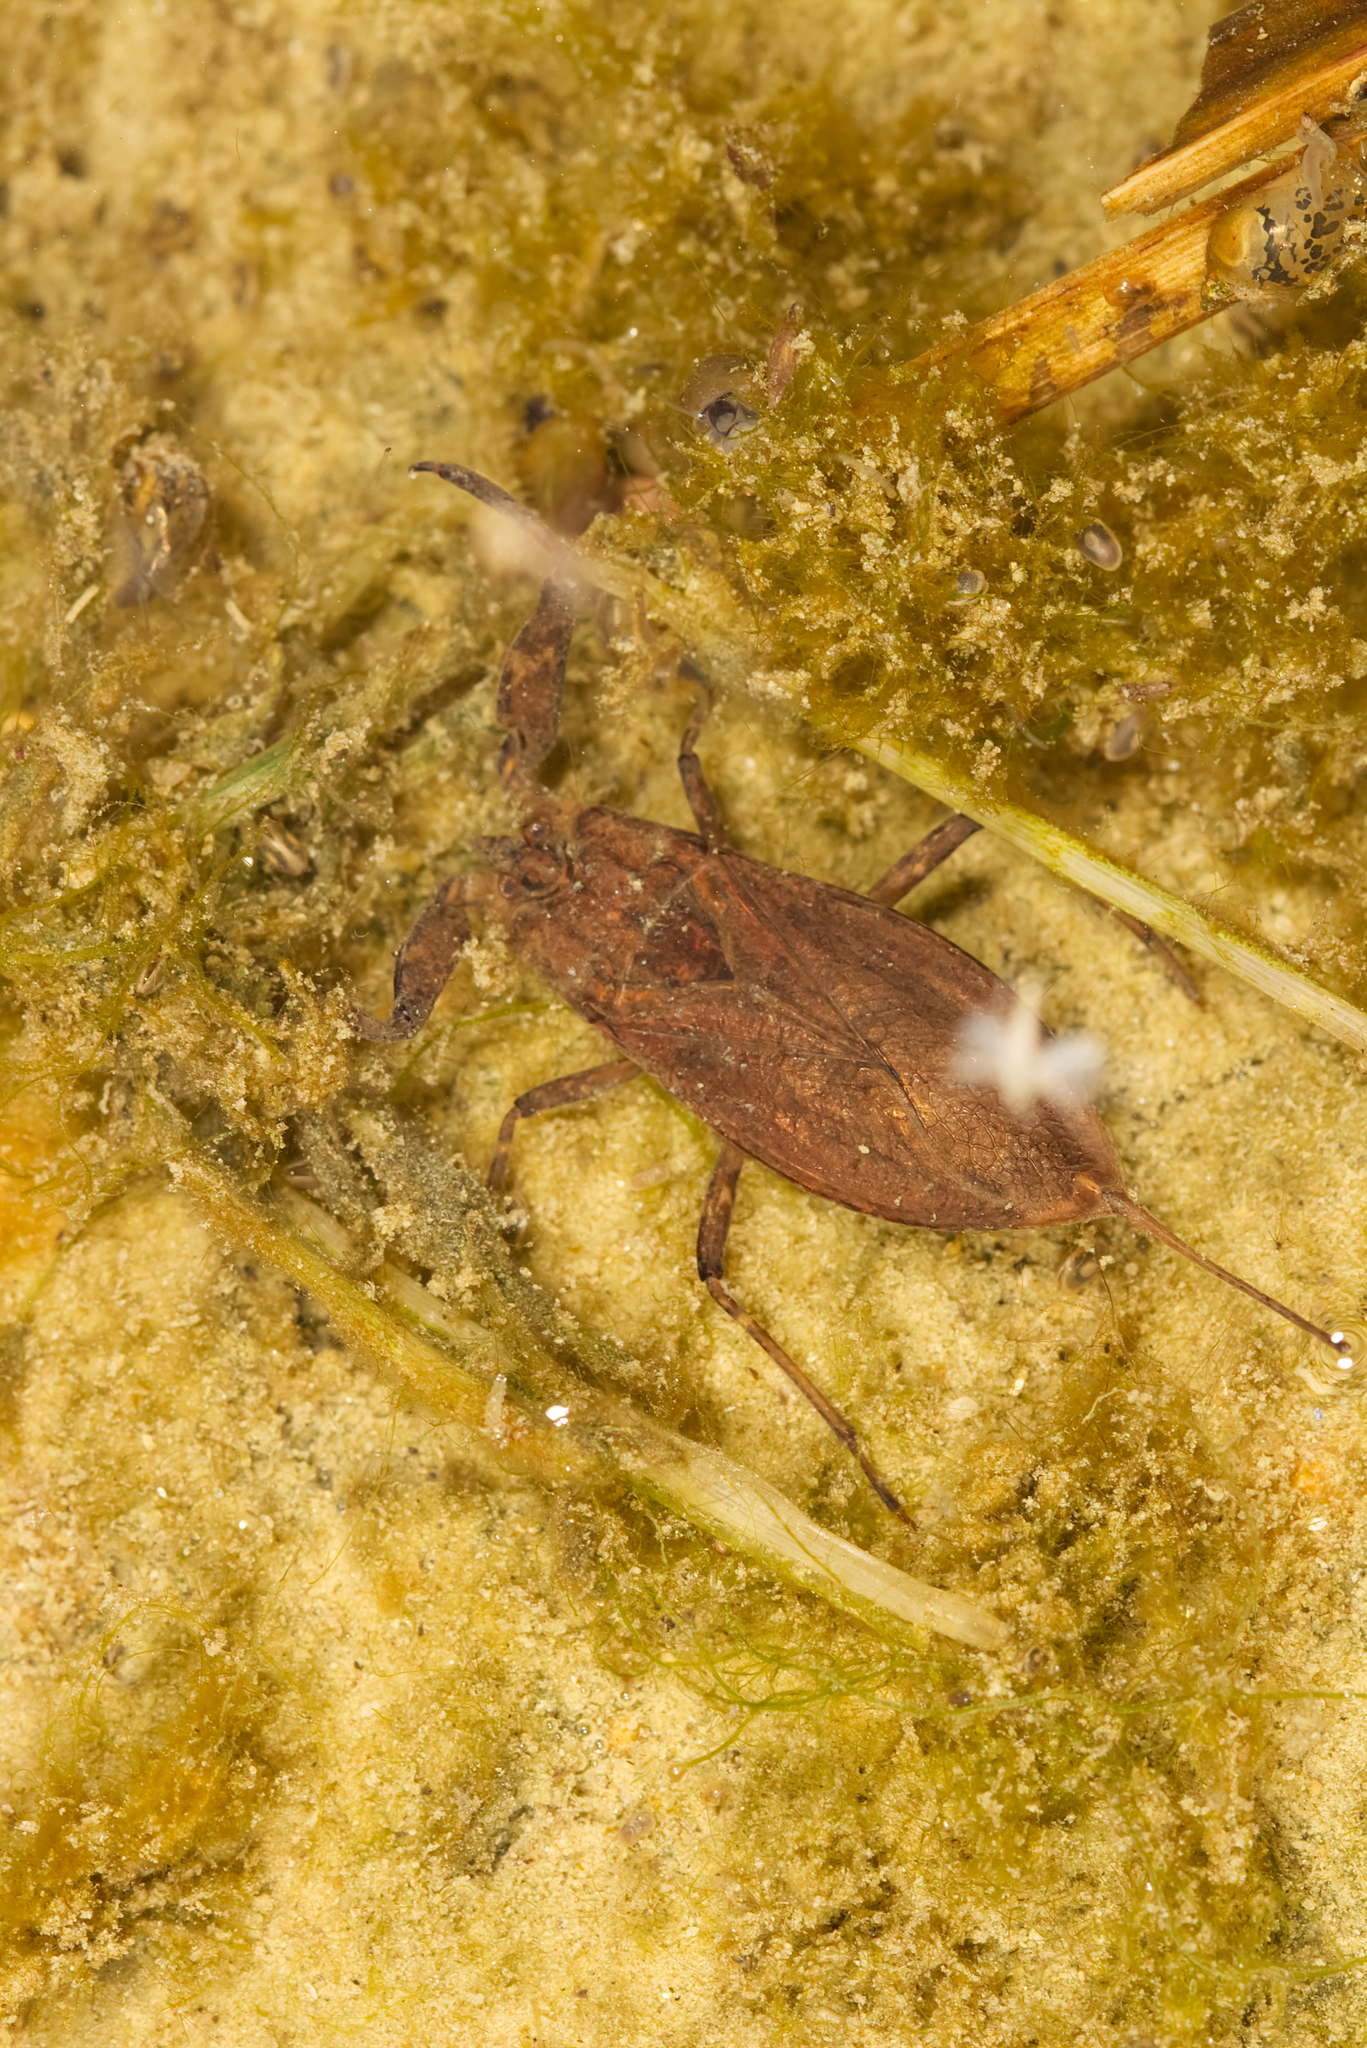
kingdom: Animalia
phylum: Arthropoda
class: Insecta
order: Hemiptera
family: Nepidae
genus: Nepa
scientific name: Nepa cinerea
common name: Water scorpion
